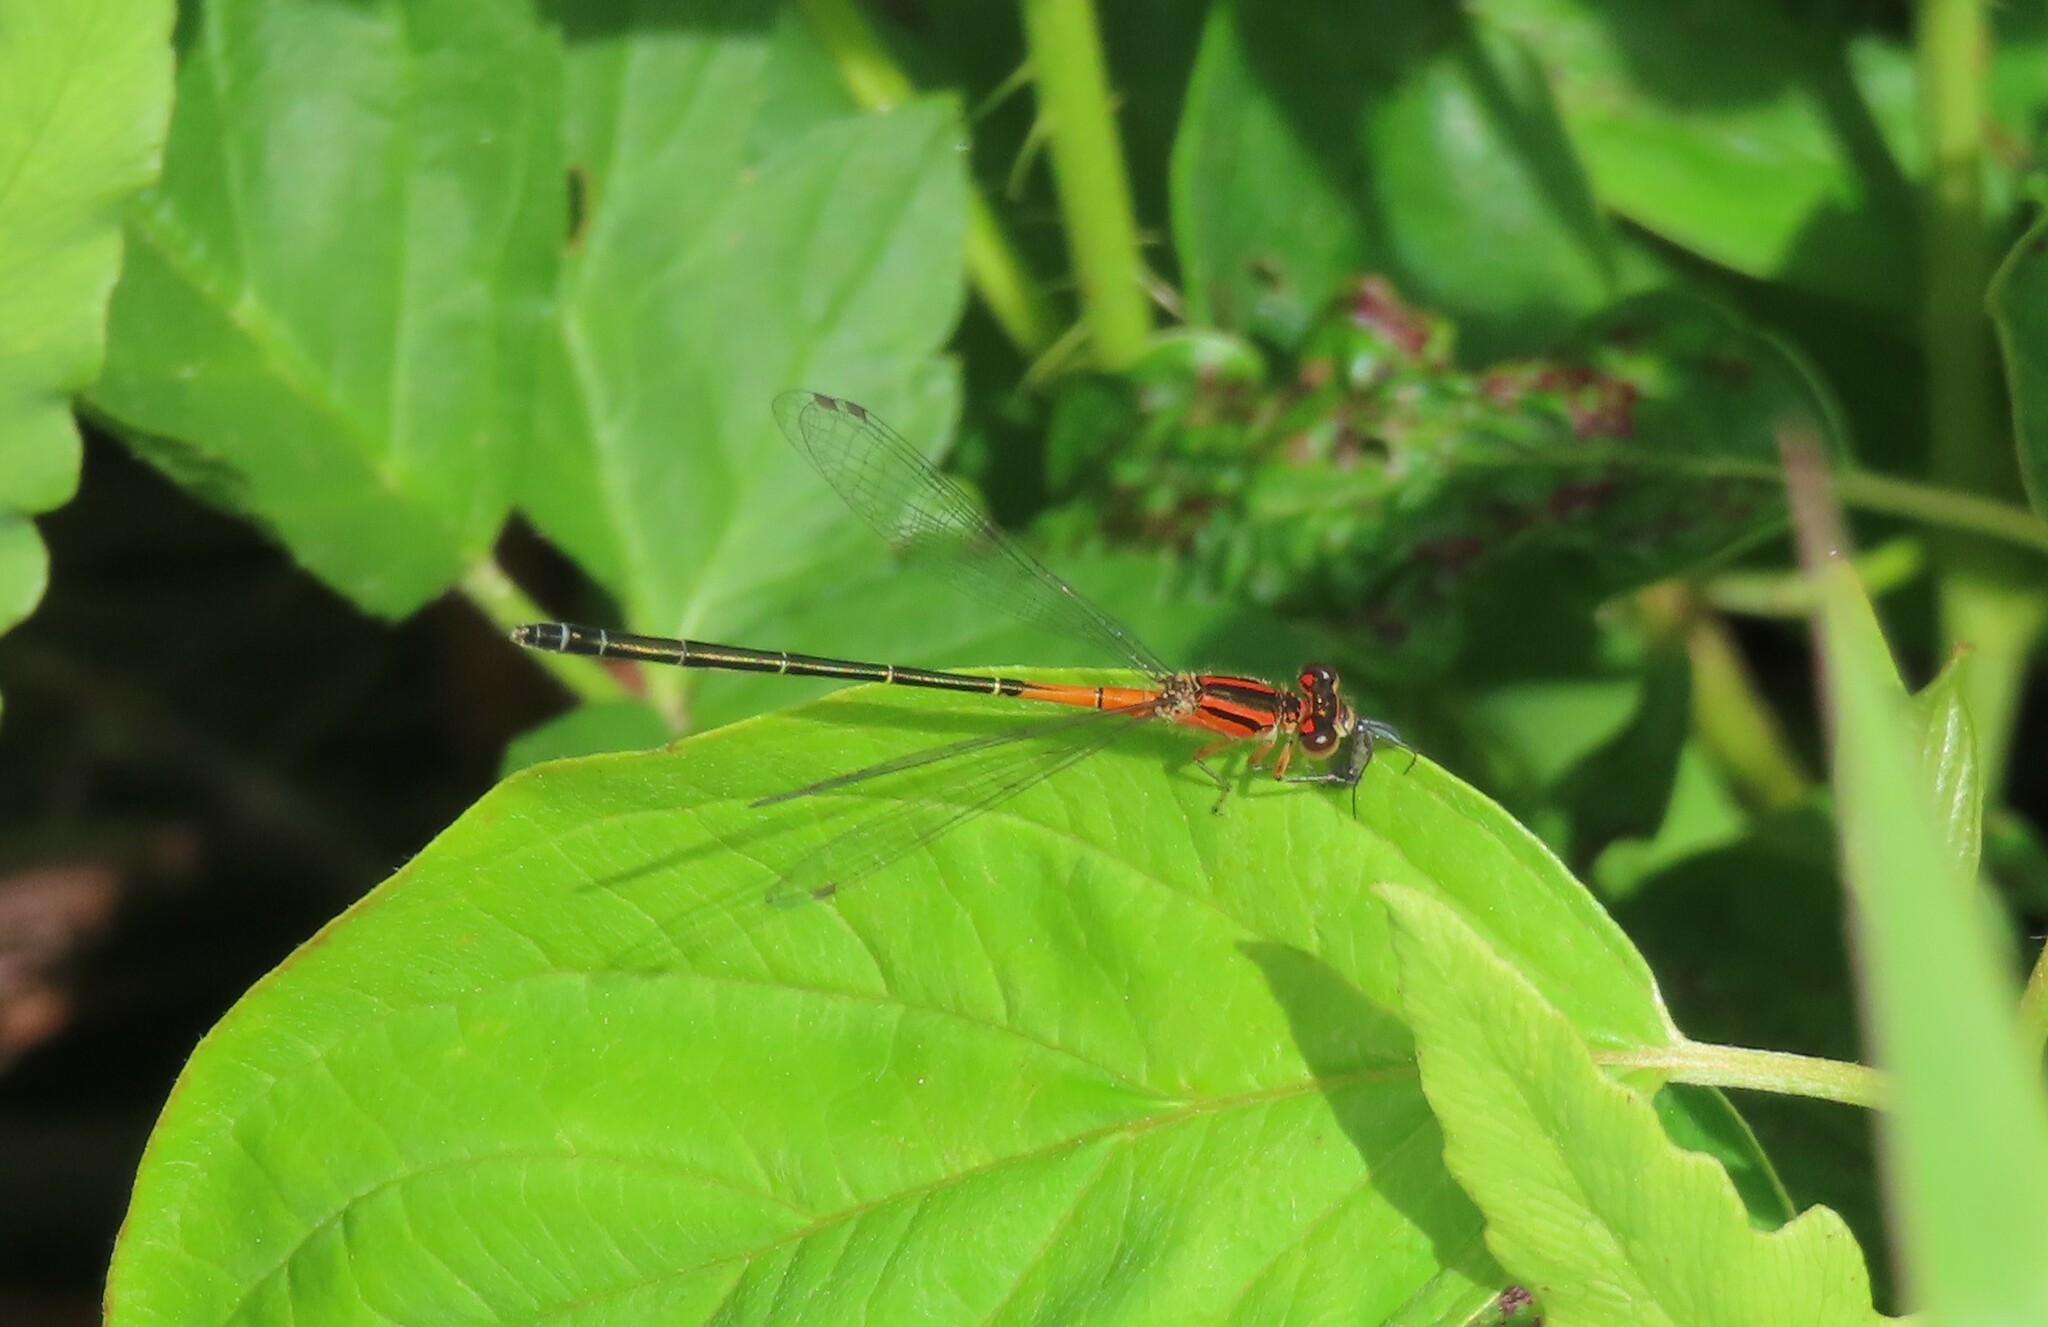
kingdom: Animalia
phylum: Arthropoda
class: Insecta
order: Odonata
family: Coenagrionidae
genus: Ischnura
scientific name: Ischnura verticalis
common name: Eastern forktail
